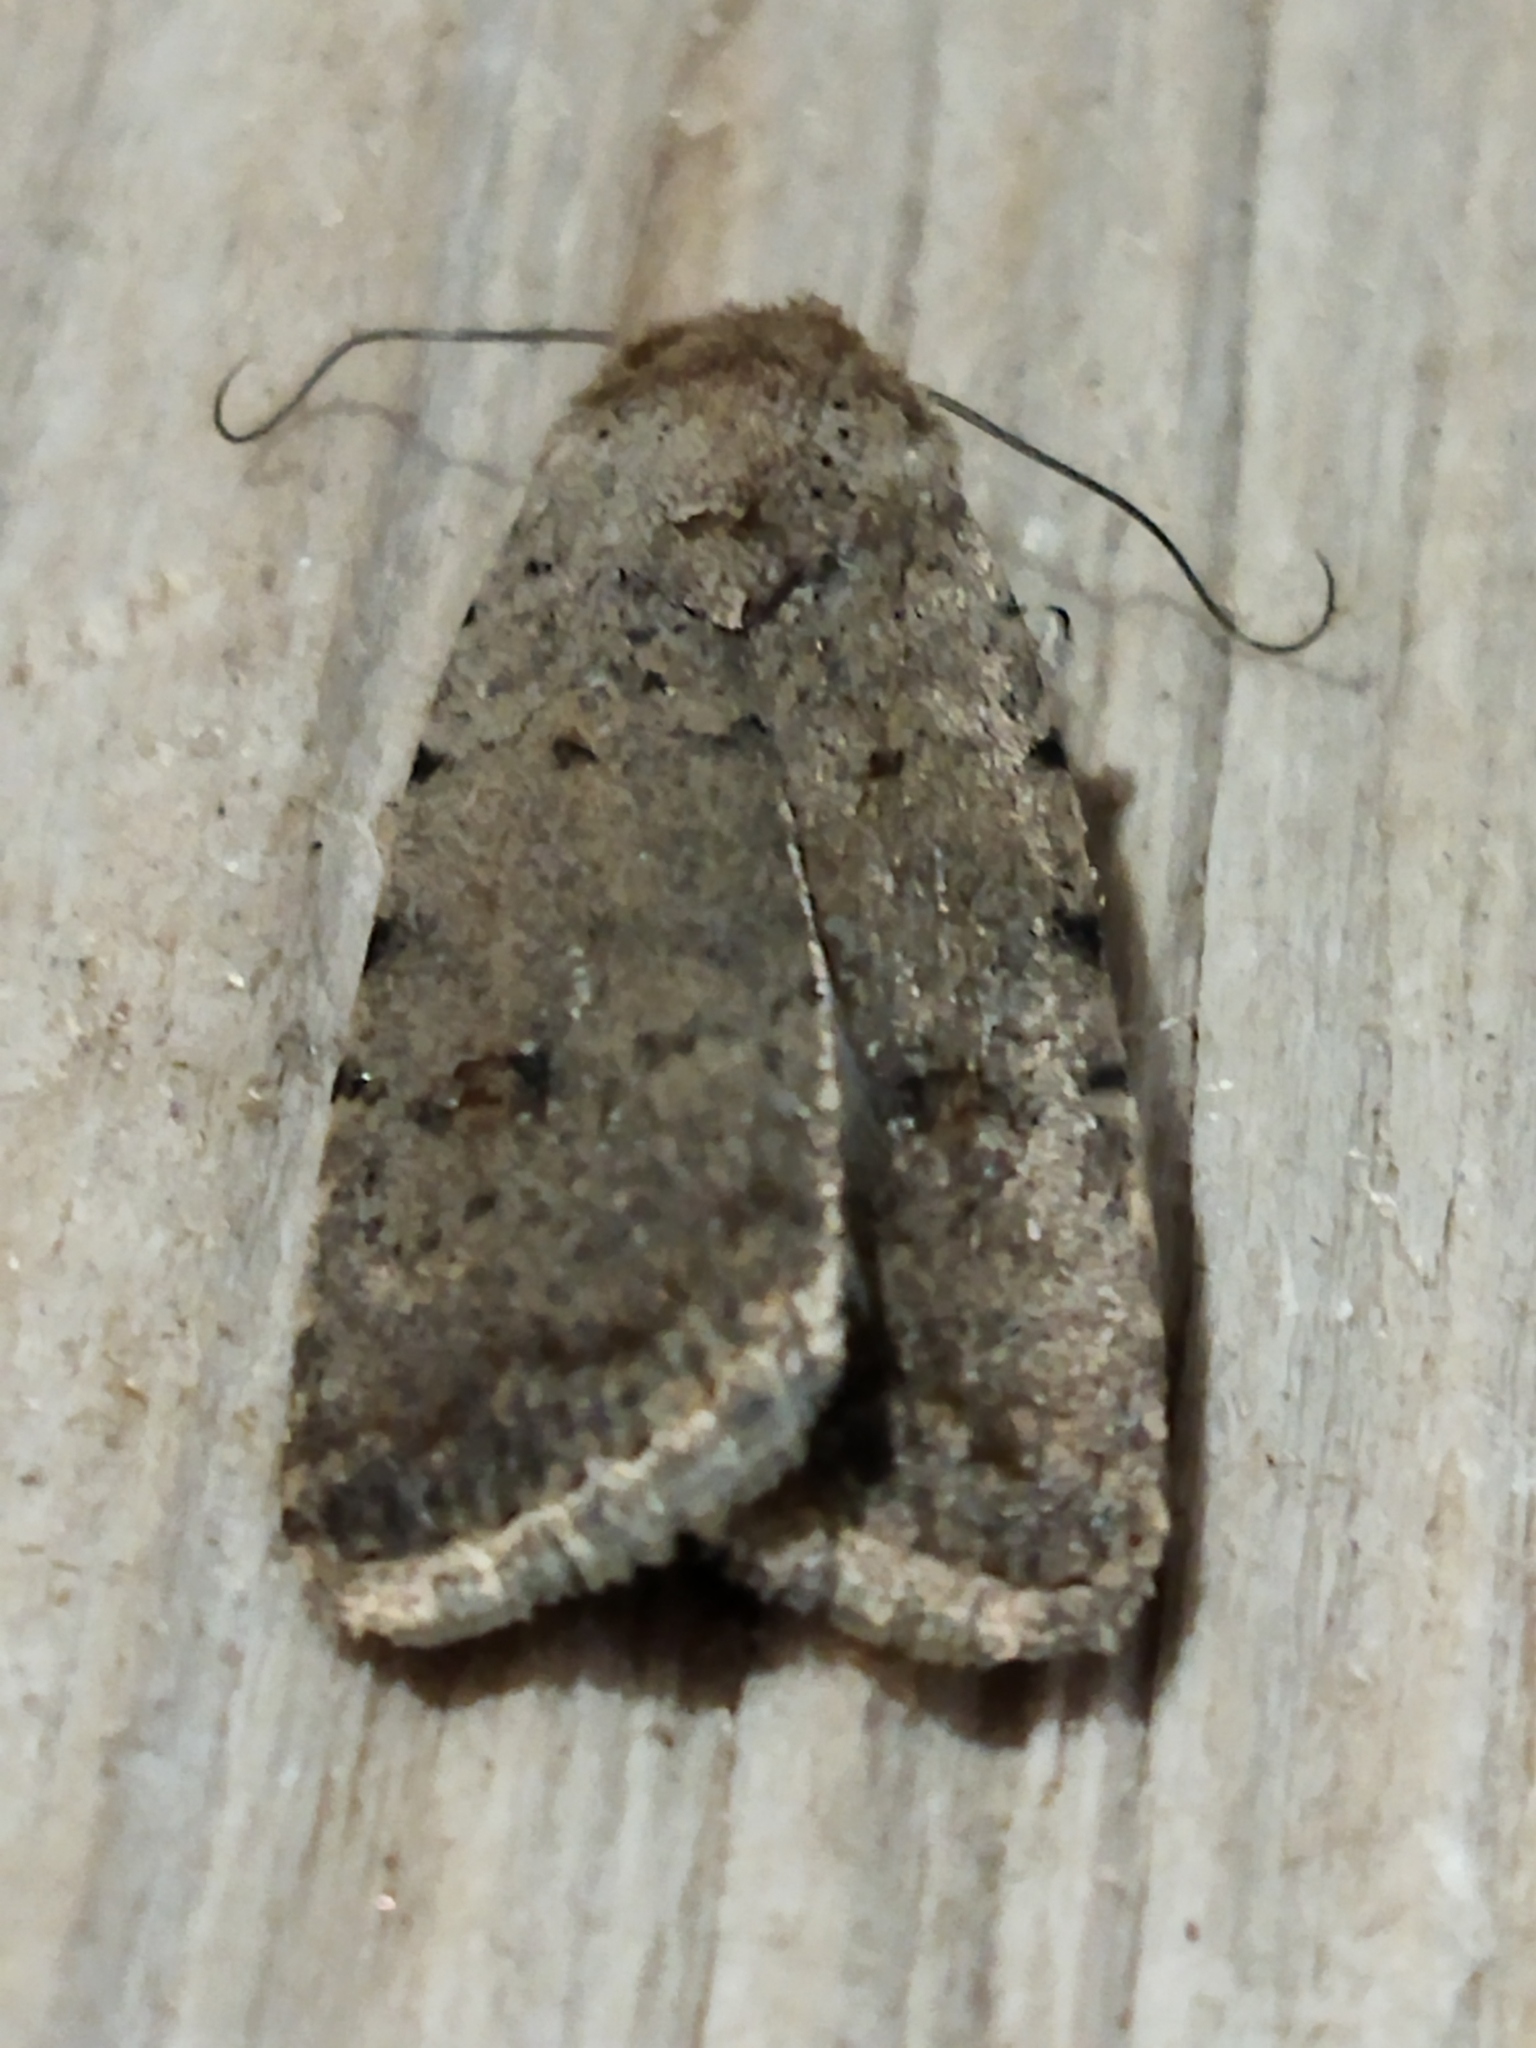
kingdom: Animalia
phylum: Arthropoda
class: Insecta
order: Lepidoptera
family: Noctuidae
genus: Caradrina
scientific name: Caradrina clavipalpis
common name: Pale mottled willow
